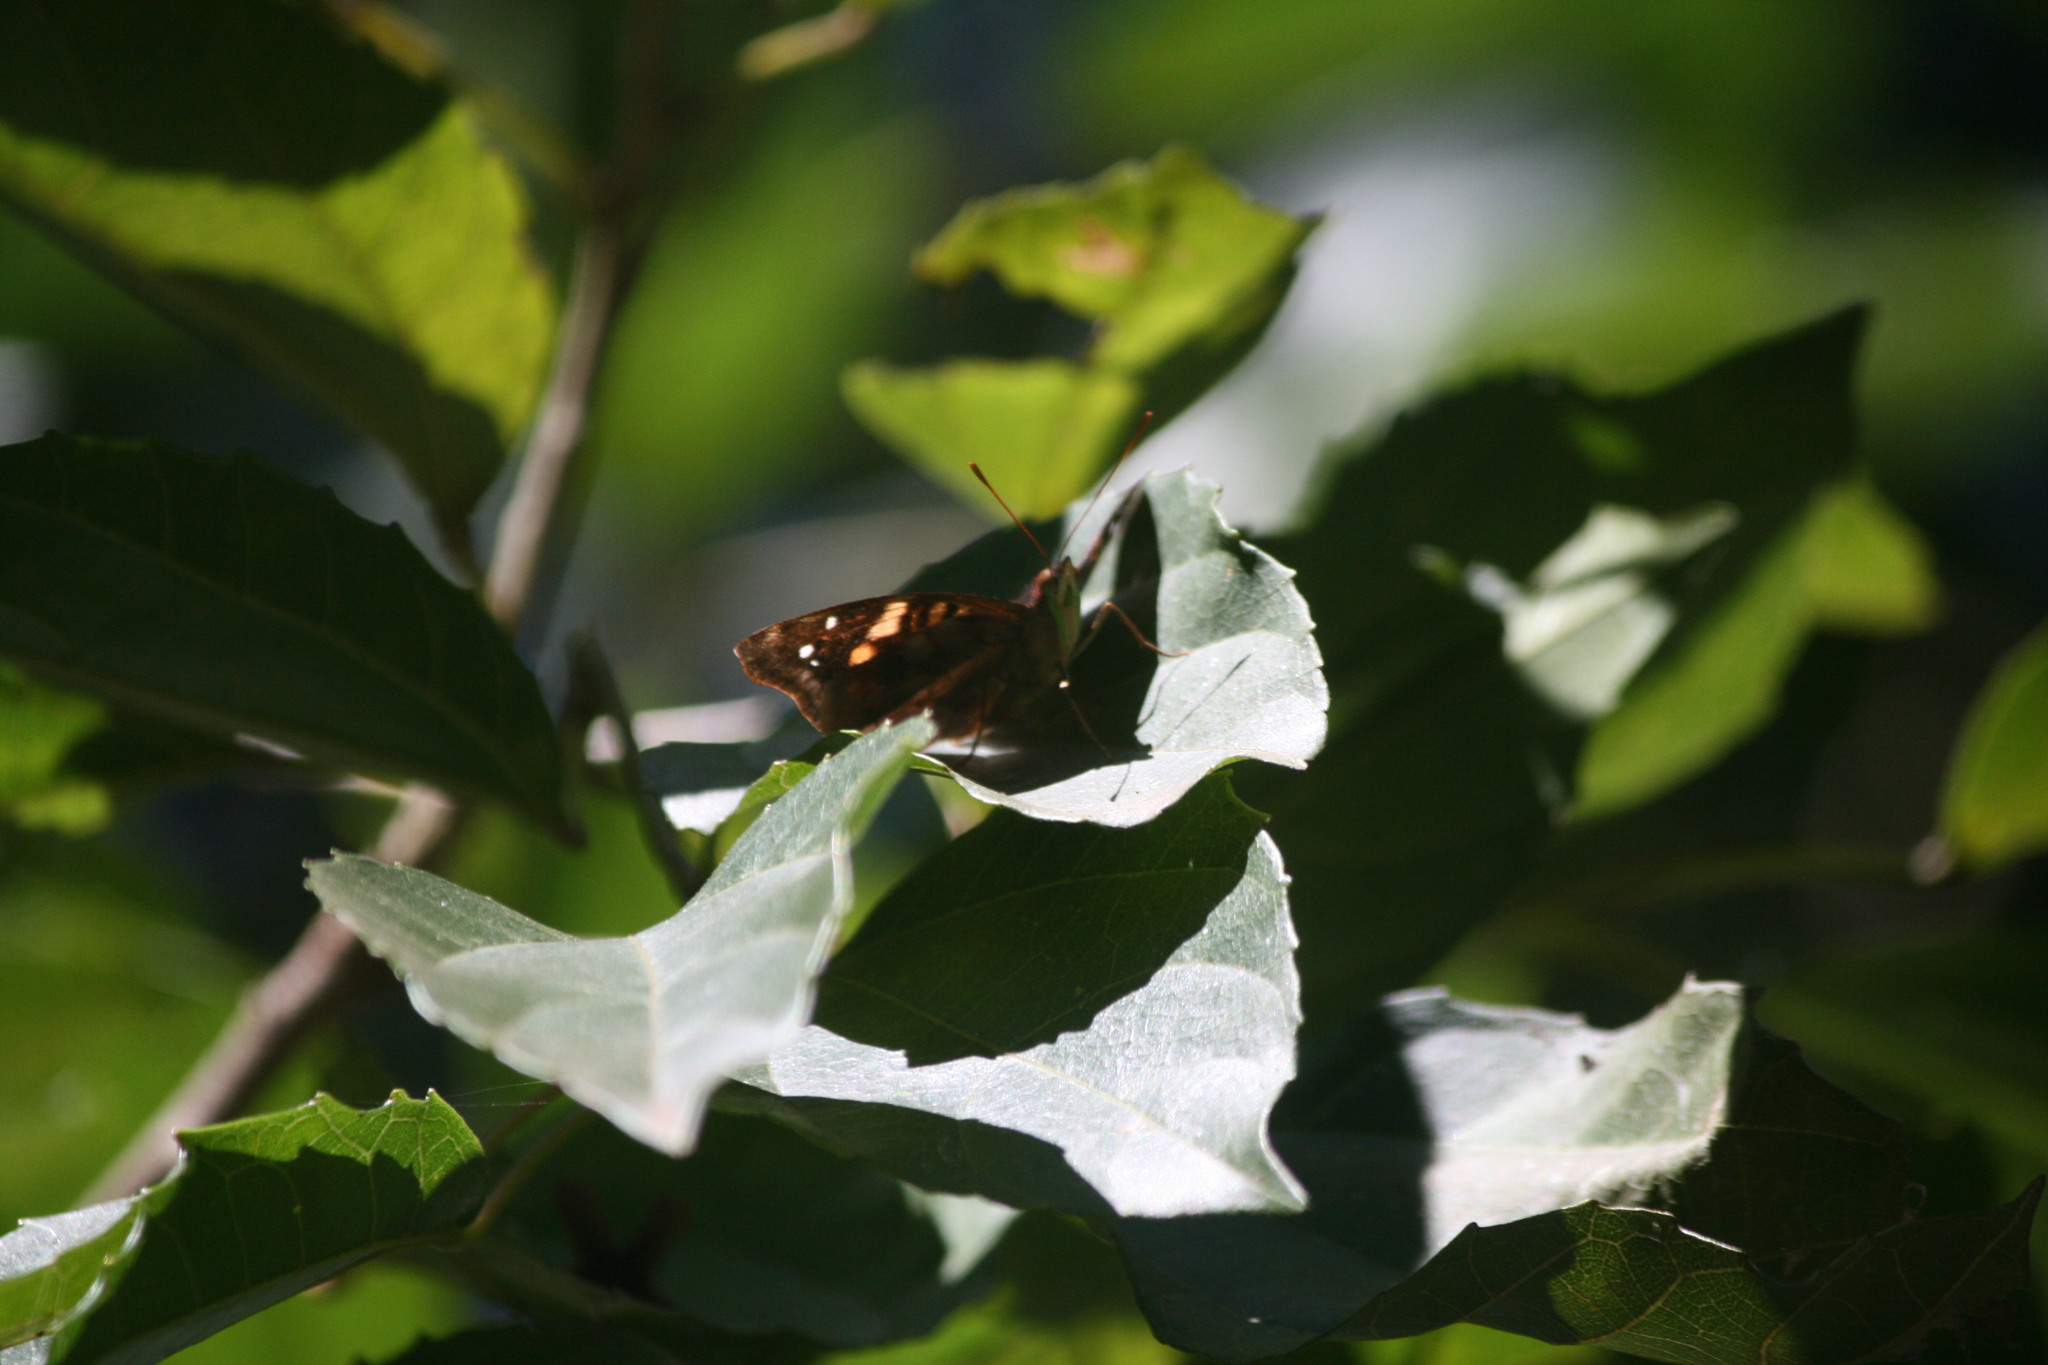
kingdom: Animalia
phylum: Arthropoda
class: Insecta
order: Lepidoptera
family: Nymphalidae
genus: Doxocopa
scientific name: Doxocopa agathina
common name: Agathina emperor
